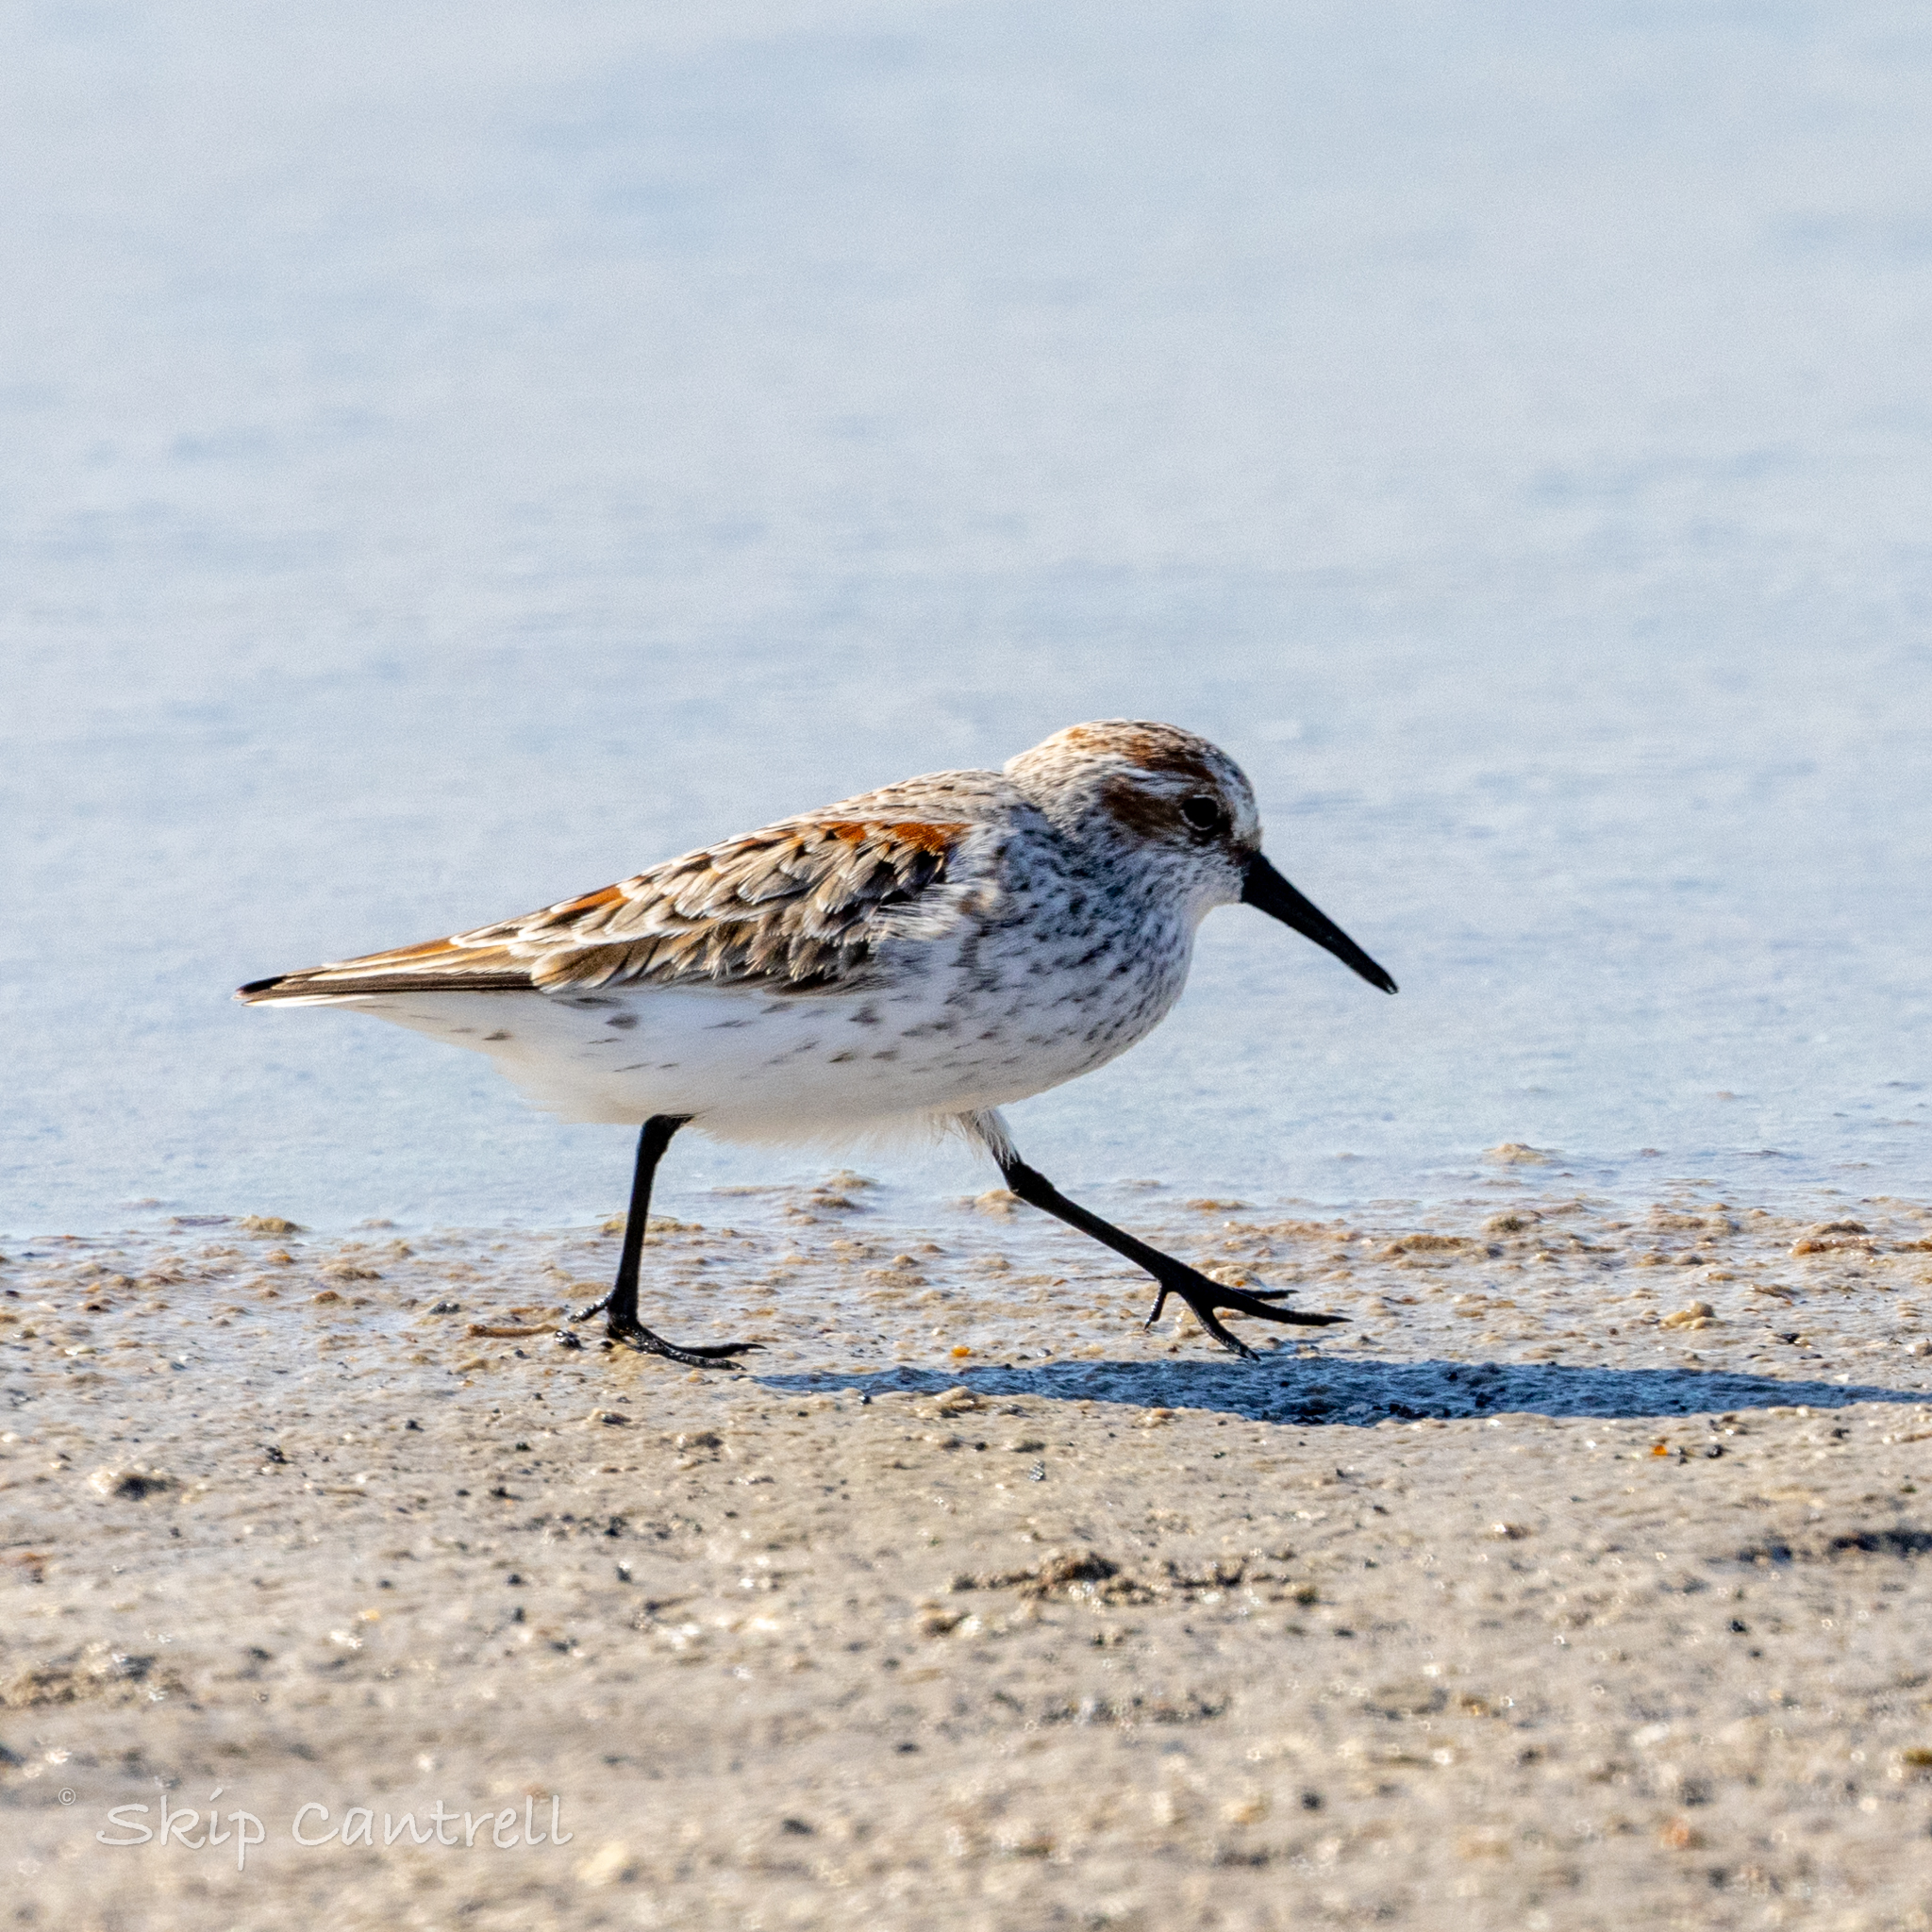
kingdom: Animalia
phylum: Chordata
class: Aves
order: Charadriiformes
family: Scolopacidae
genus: Calidris
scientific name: Calidris mauri
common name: Western sandpiper
